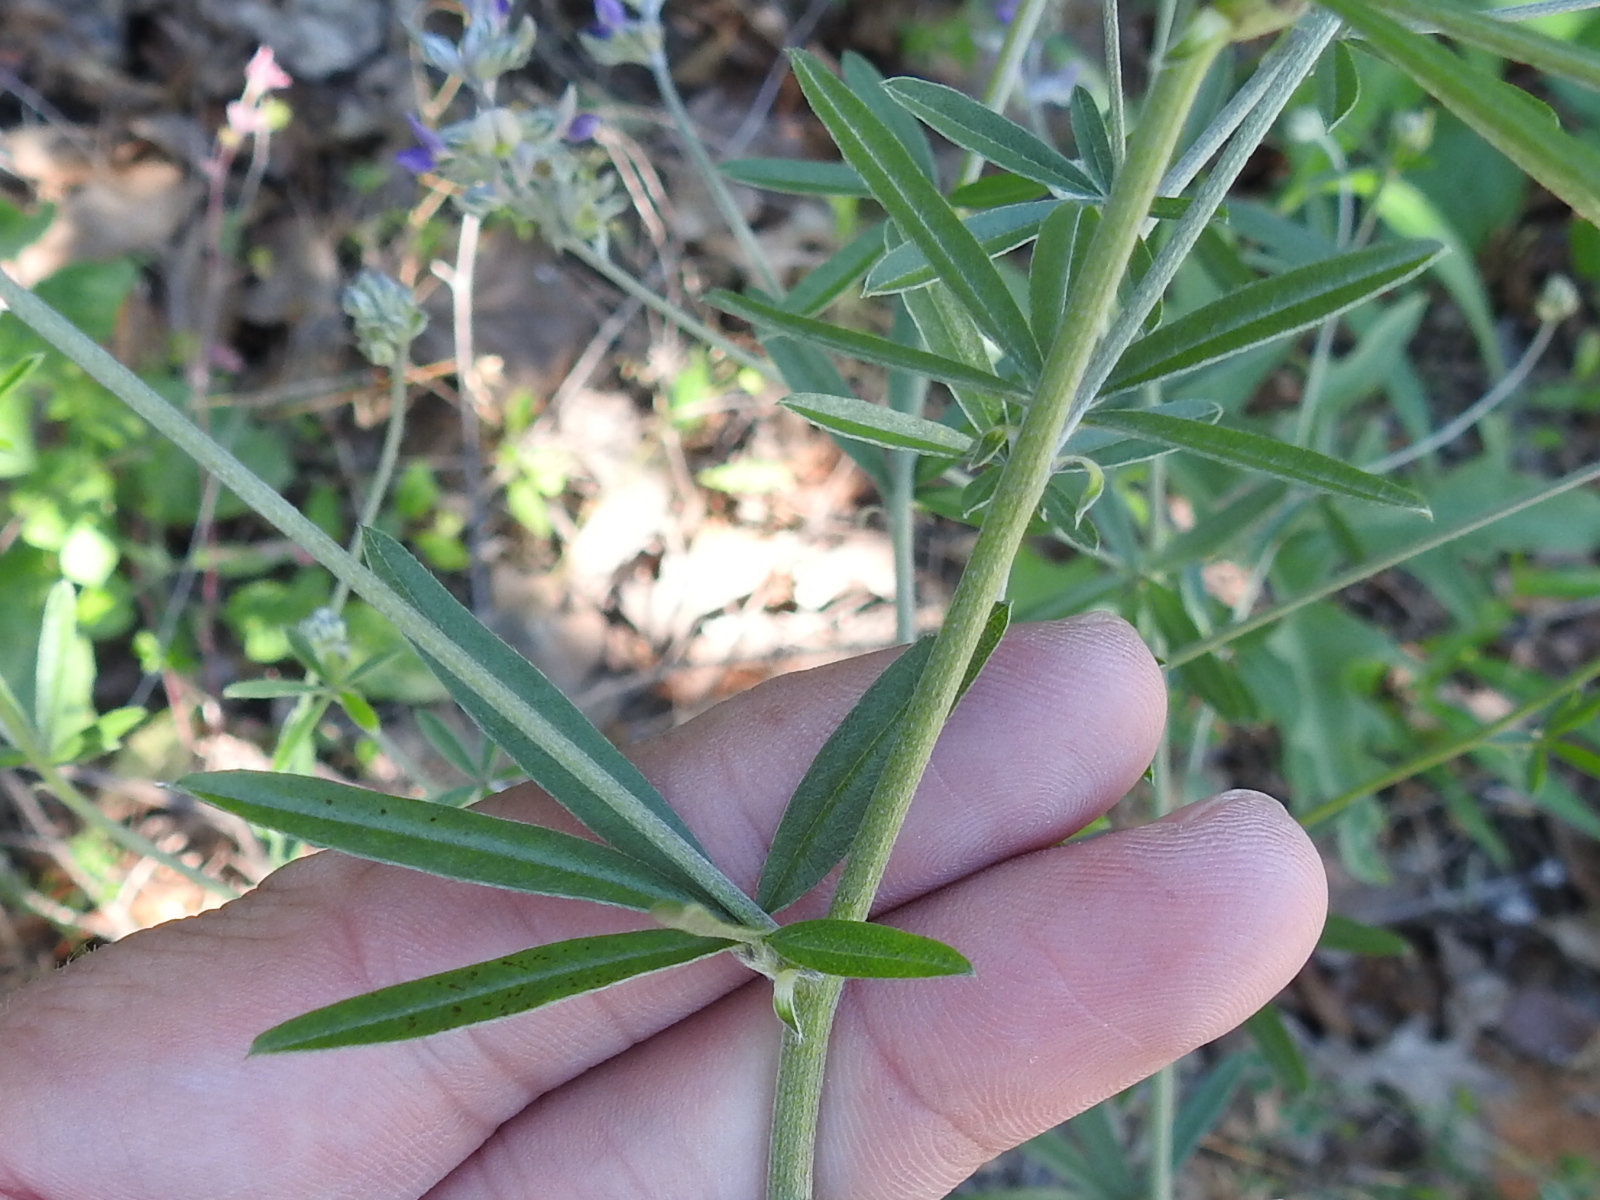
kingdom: Plantae
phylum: Tracheophyta
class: Magnoliopsida
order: Fabales
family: Fabaceae
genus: Pediomelum
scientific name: Pediomelum digitatum
